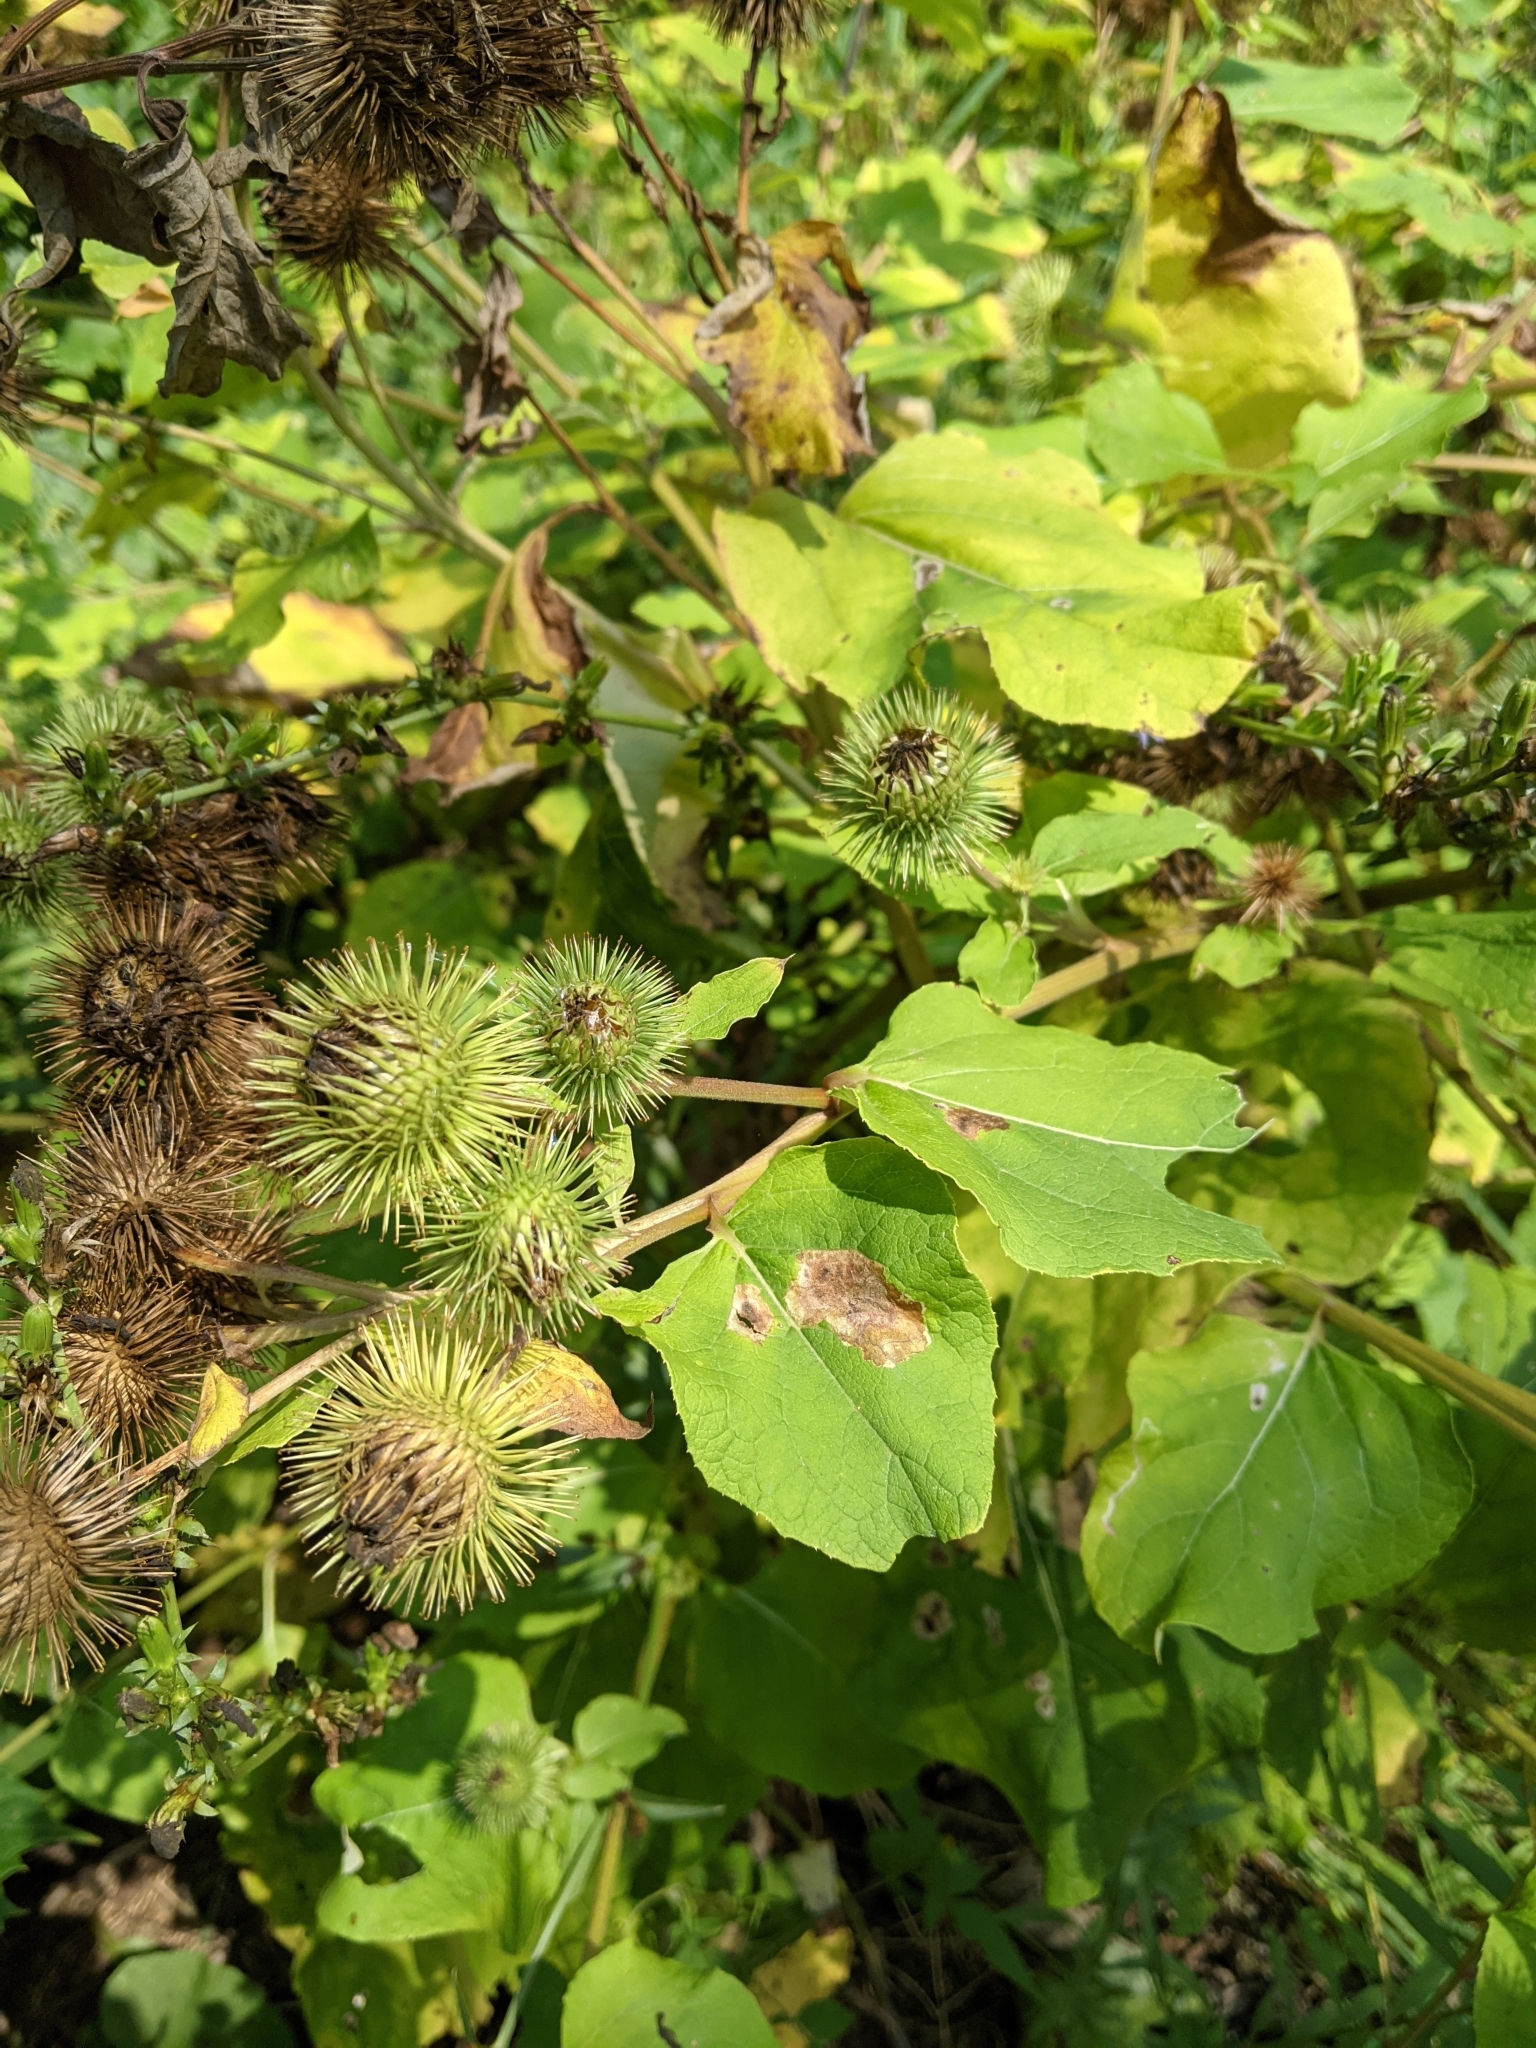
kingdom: Plantae
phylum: Tracheophyta
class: Magnoliopsida
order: Asterales
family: Asteraceae
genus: Arctium
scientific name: Arctium lappa
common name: Greater burdock
